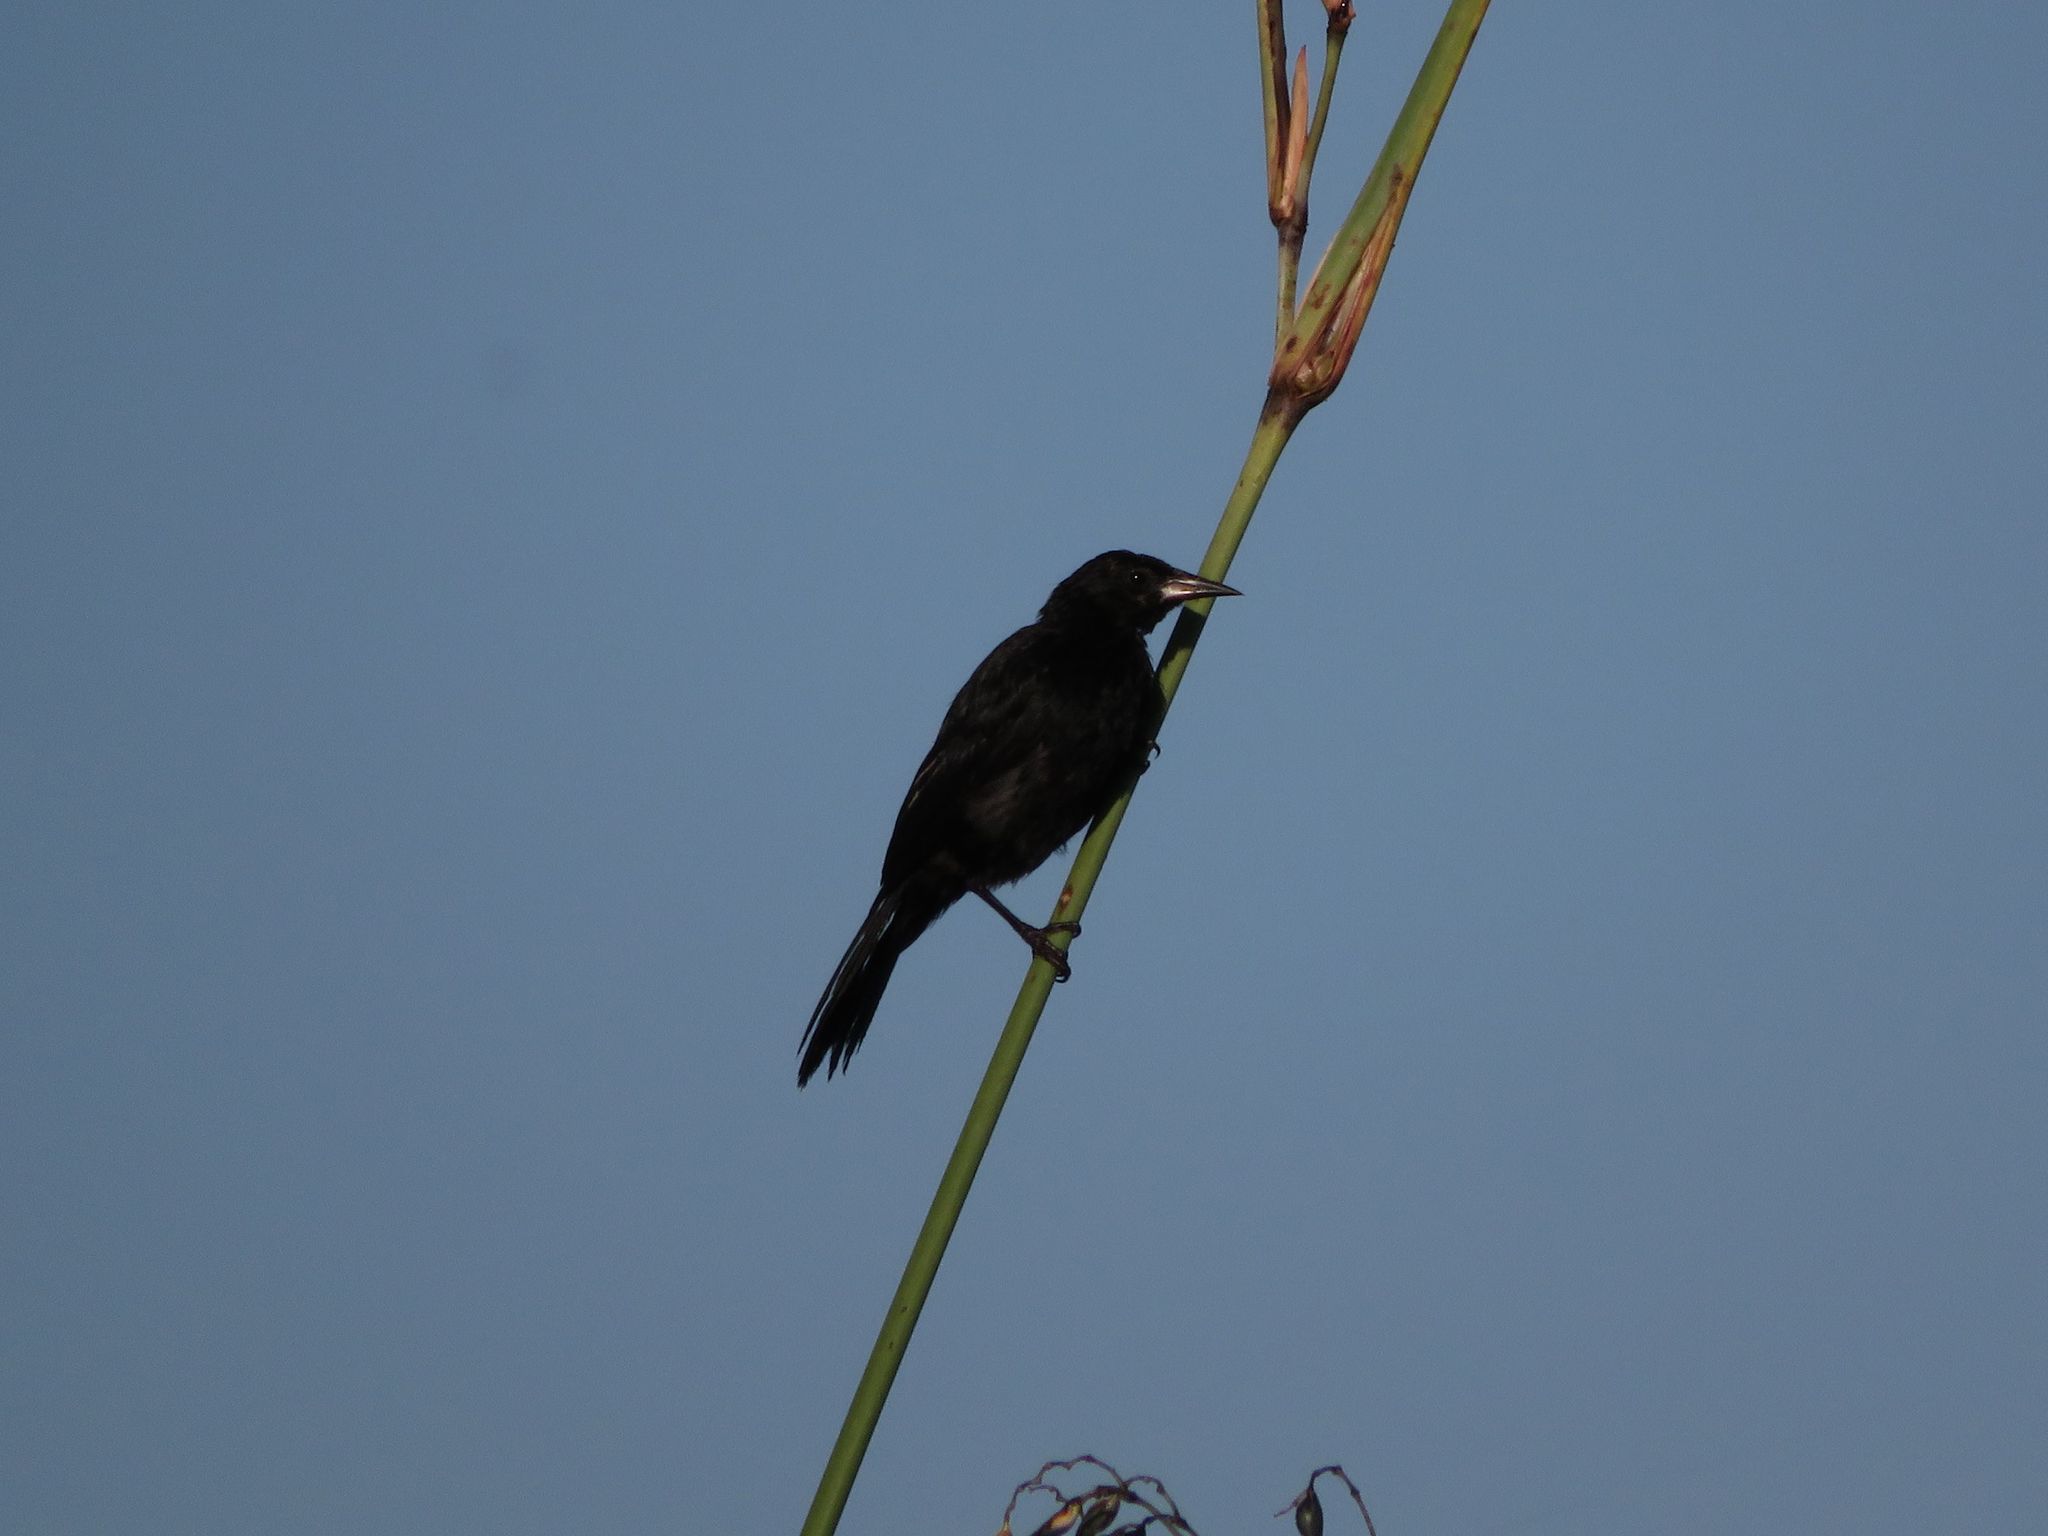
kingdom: Animalia
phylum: Chordata
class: Aves
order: Passeriformes
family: Icteridae
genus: Agelasticus
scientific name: Agelasticus cyanopus
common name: Unicolored blackbird
